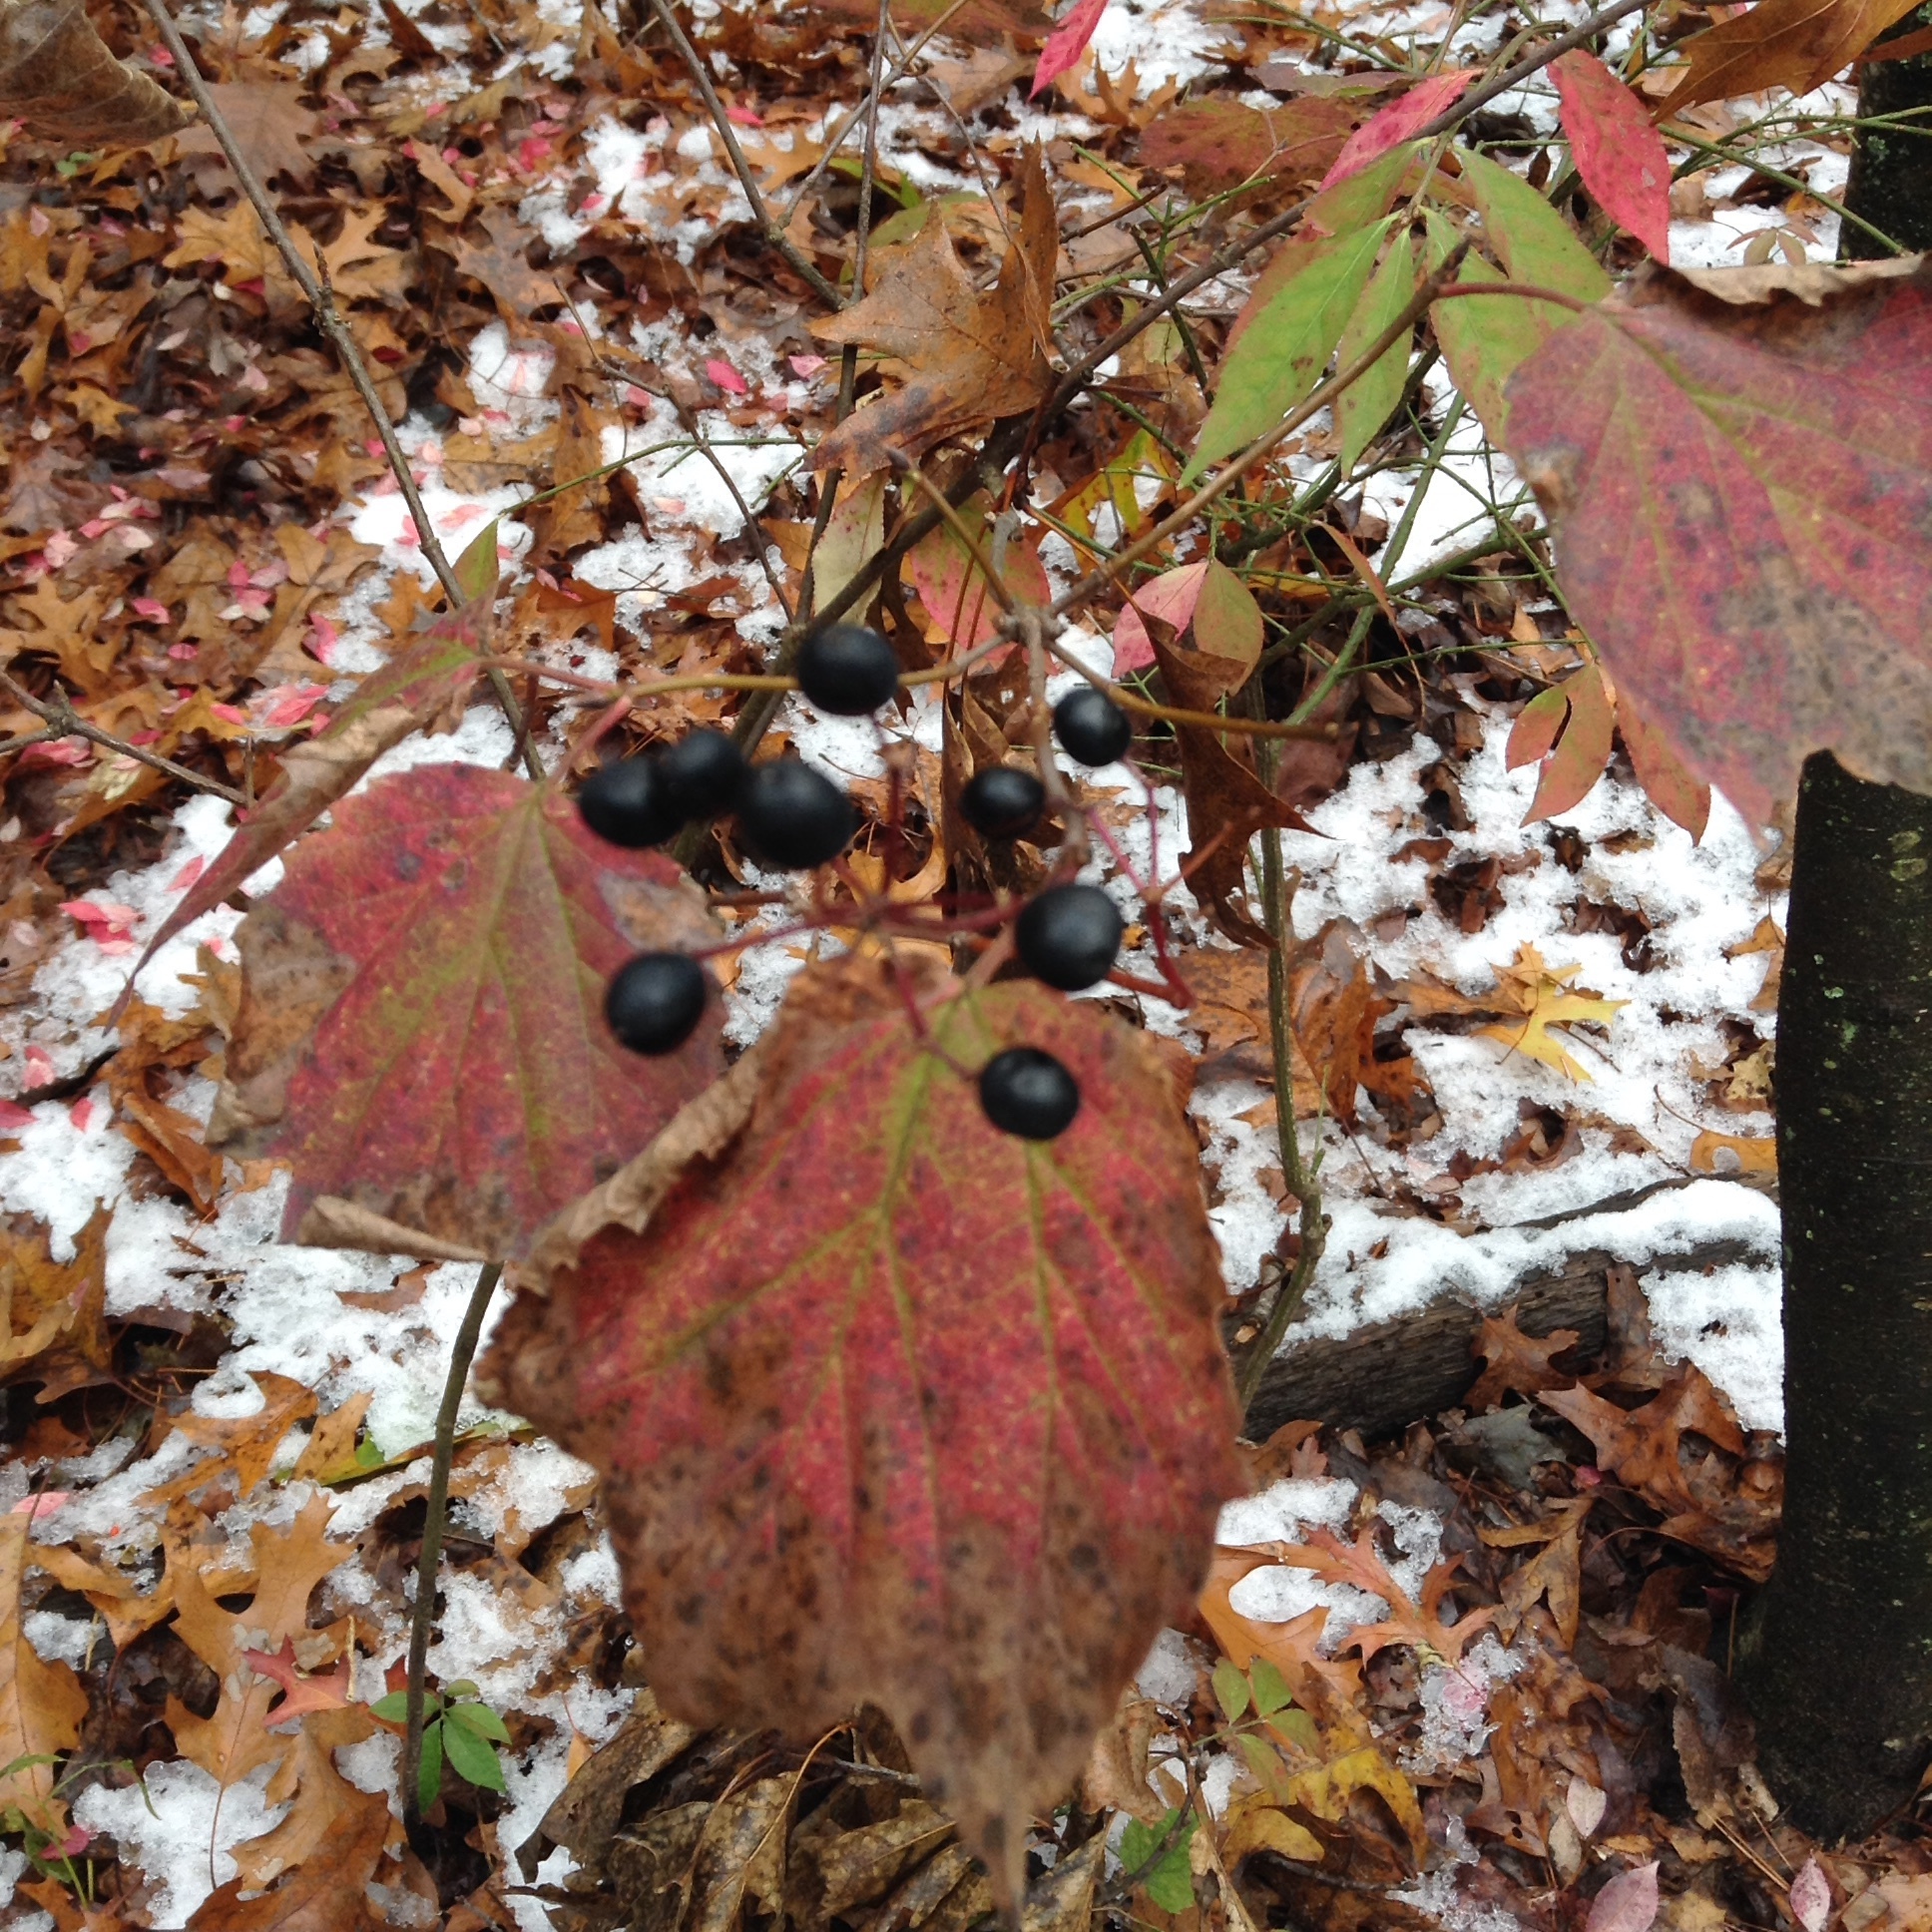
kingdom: Plantae
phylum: Tracheophyta
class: Magnoliopsida
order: Dipsacales
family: Viburnaceae
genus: Viburnum
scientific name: Viburnum acerifolium
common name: Dockmackie
